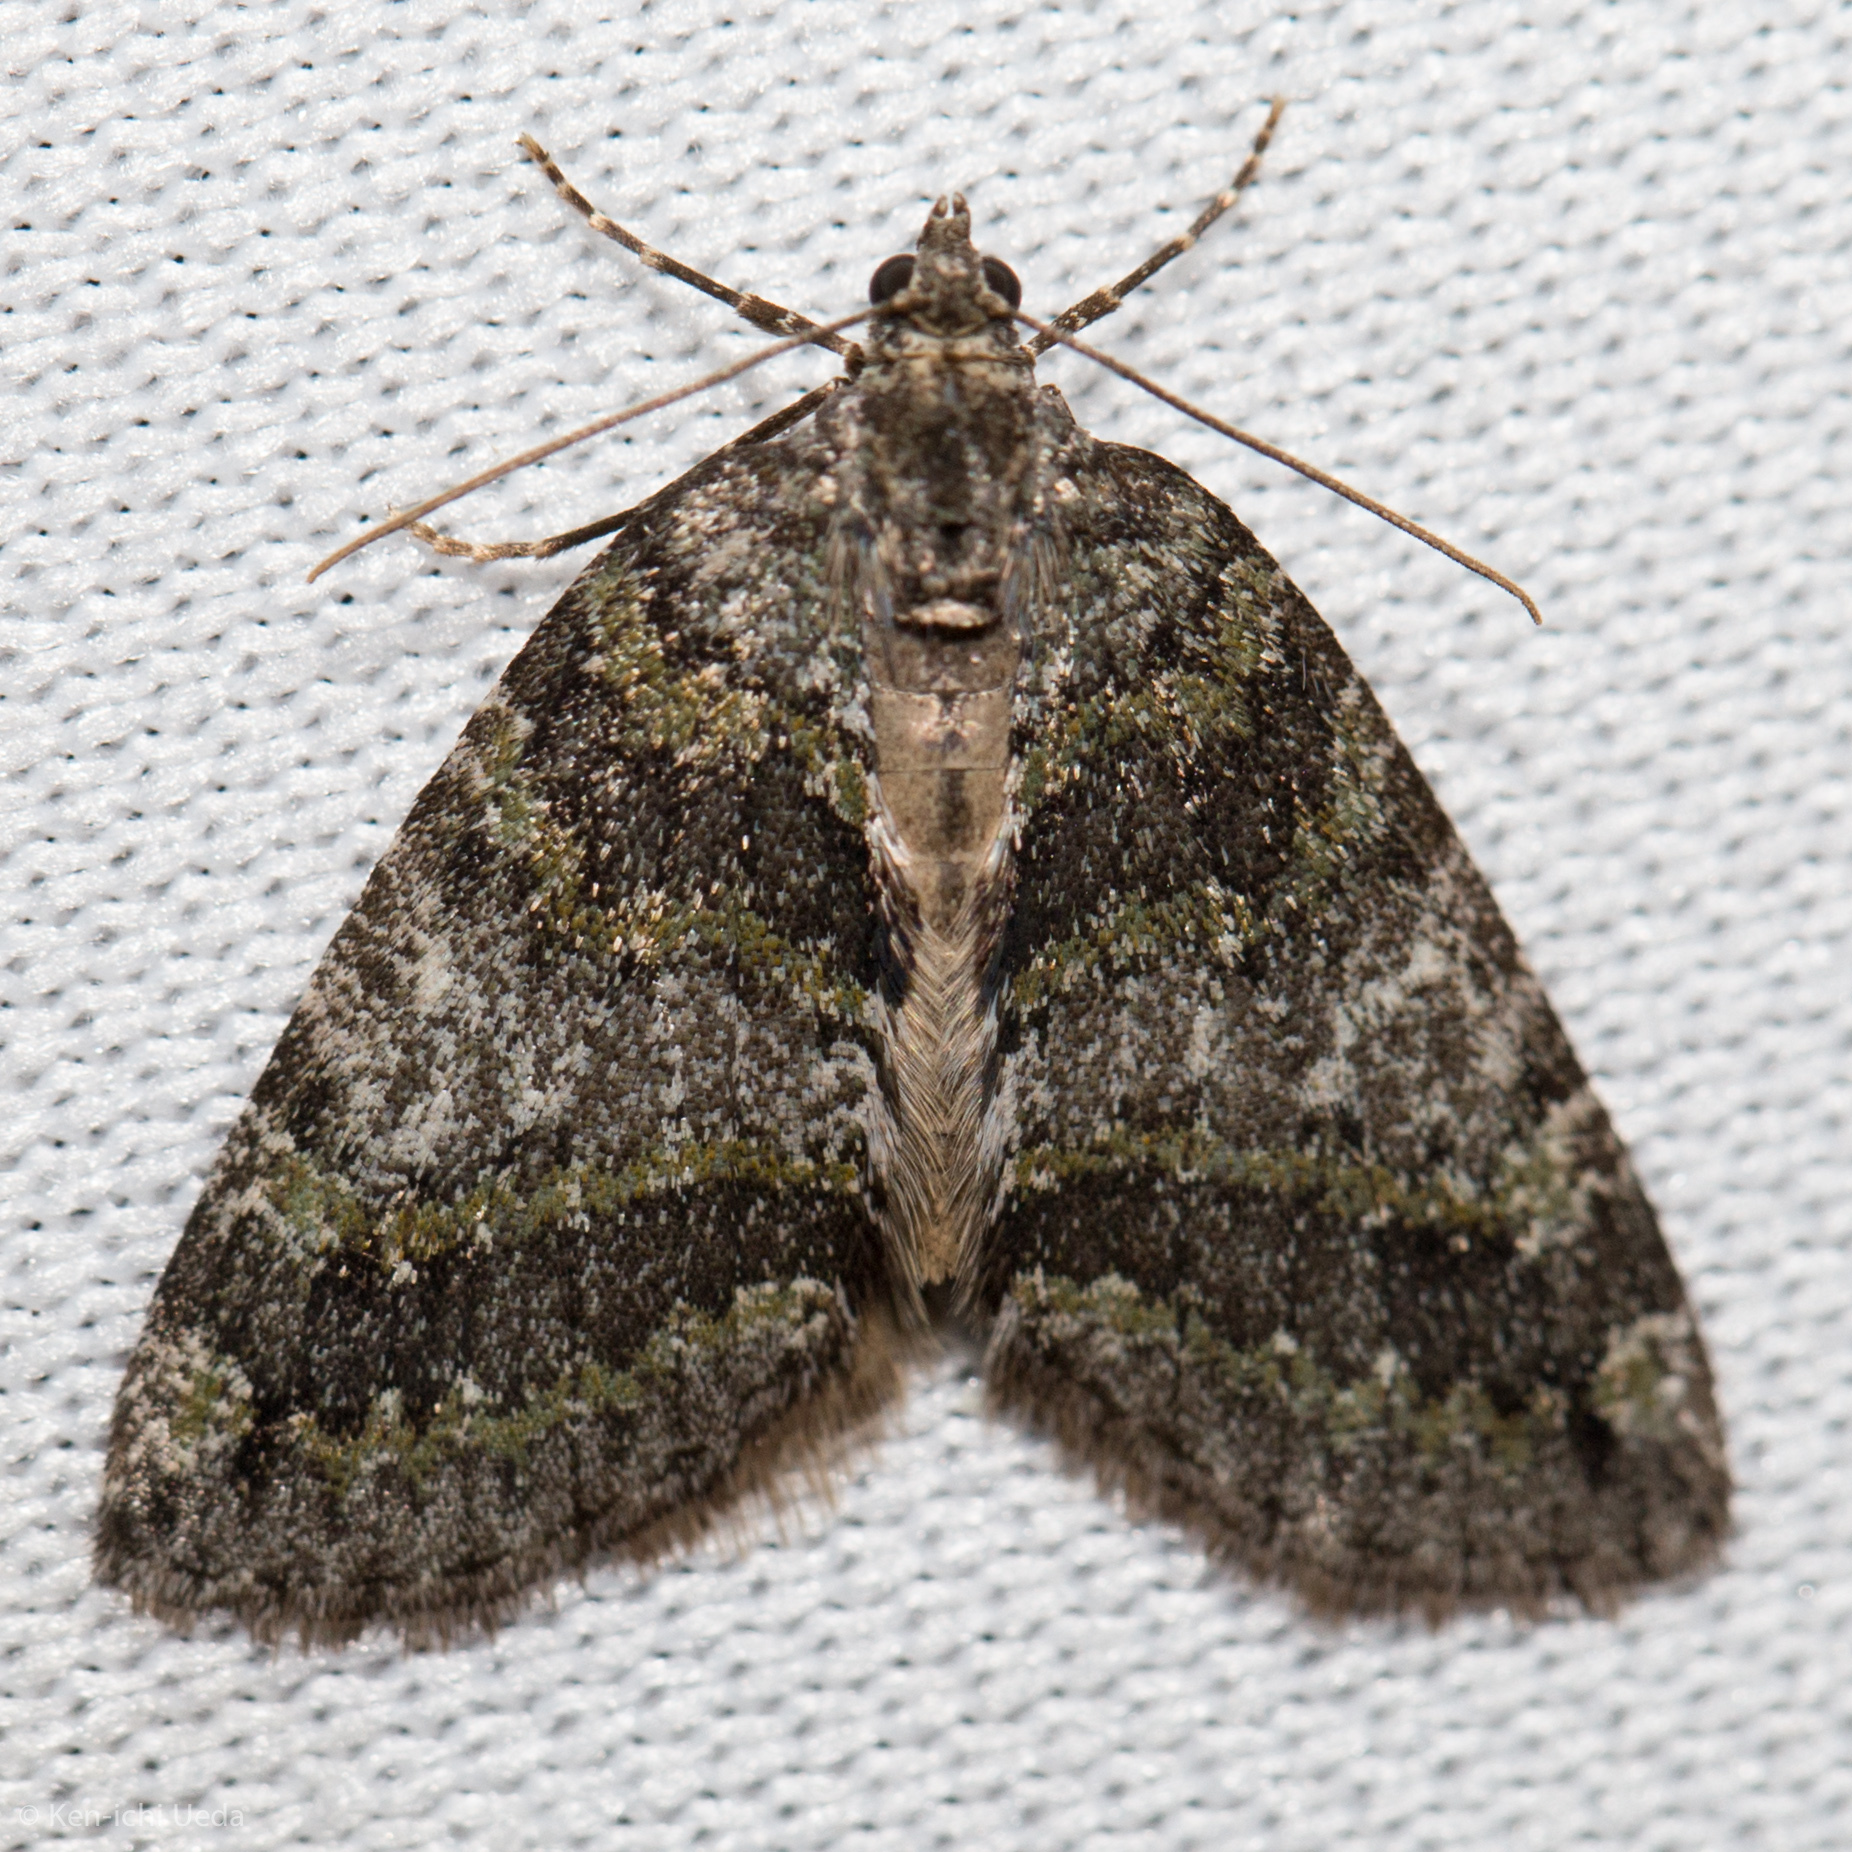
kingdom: Animalia
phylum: Arthropoda
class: Insecta
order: Lepidoptera
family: Geometridae
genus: Hydriomena
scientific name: Hydriomena nubilofasciata
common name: Oak winter highflier moth
